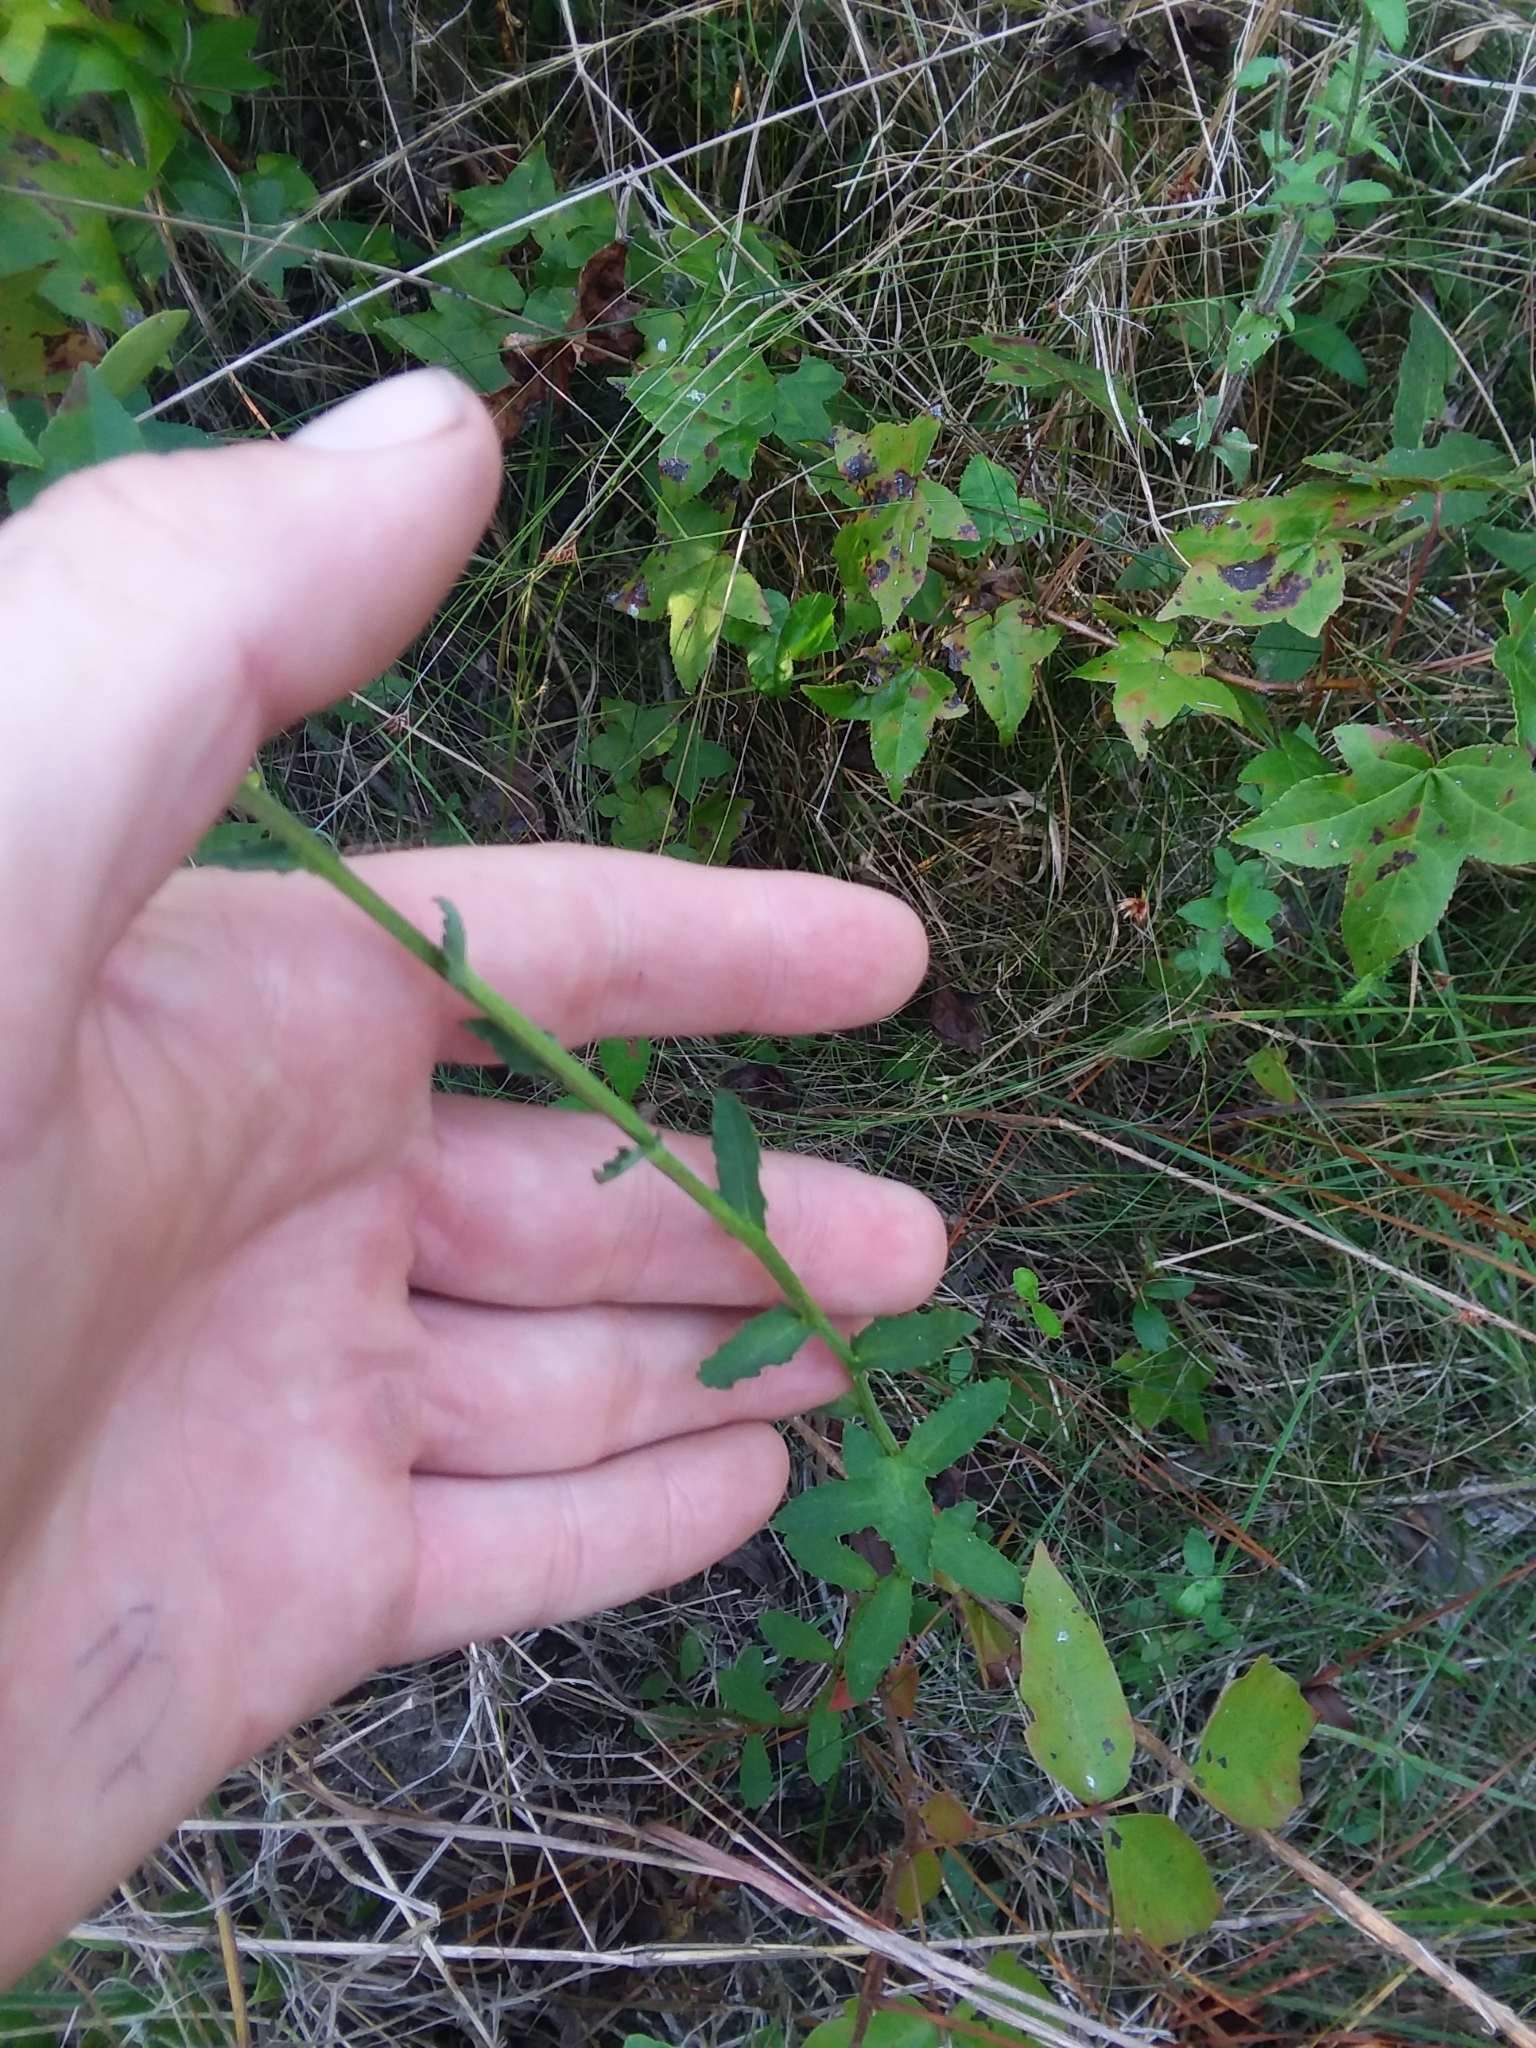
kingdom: Plantae
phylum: Tracheophyta
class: Magnoliopsida
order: Asterales
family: Campanulaceae
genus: Lobelia
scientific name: Lobelia brevifolia
